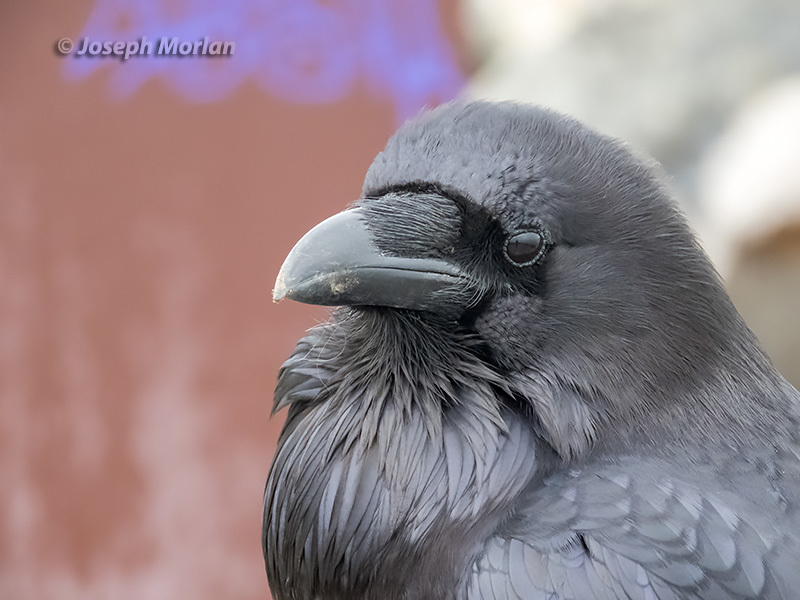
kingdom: Animalia
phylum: Chordata
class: Aves
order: Passeriformes
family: Corvidae
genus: Corvus
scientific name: Corvus corax
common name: Common raven
